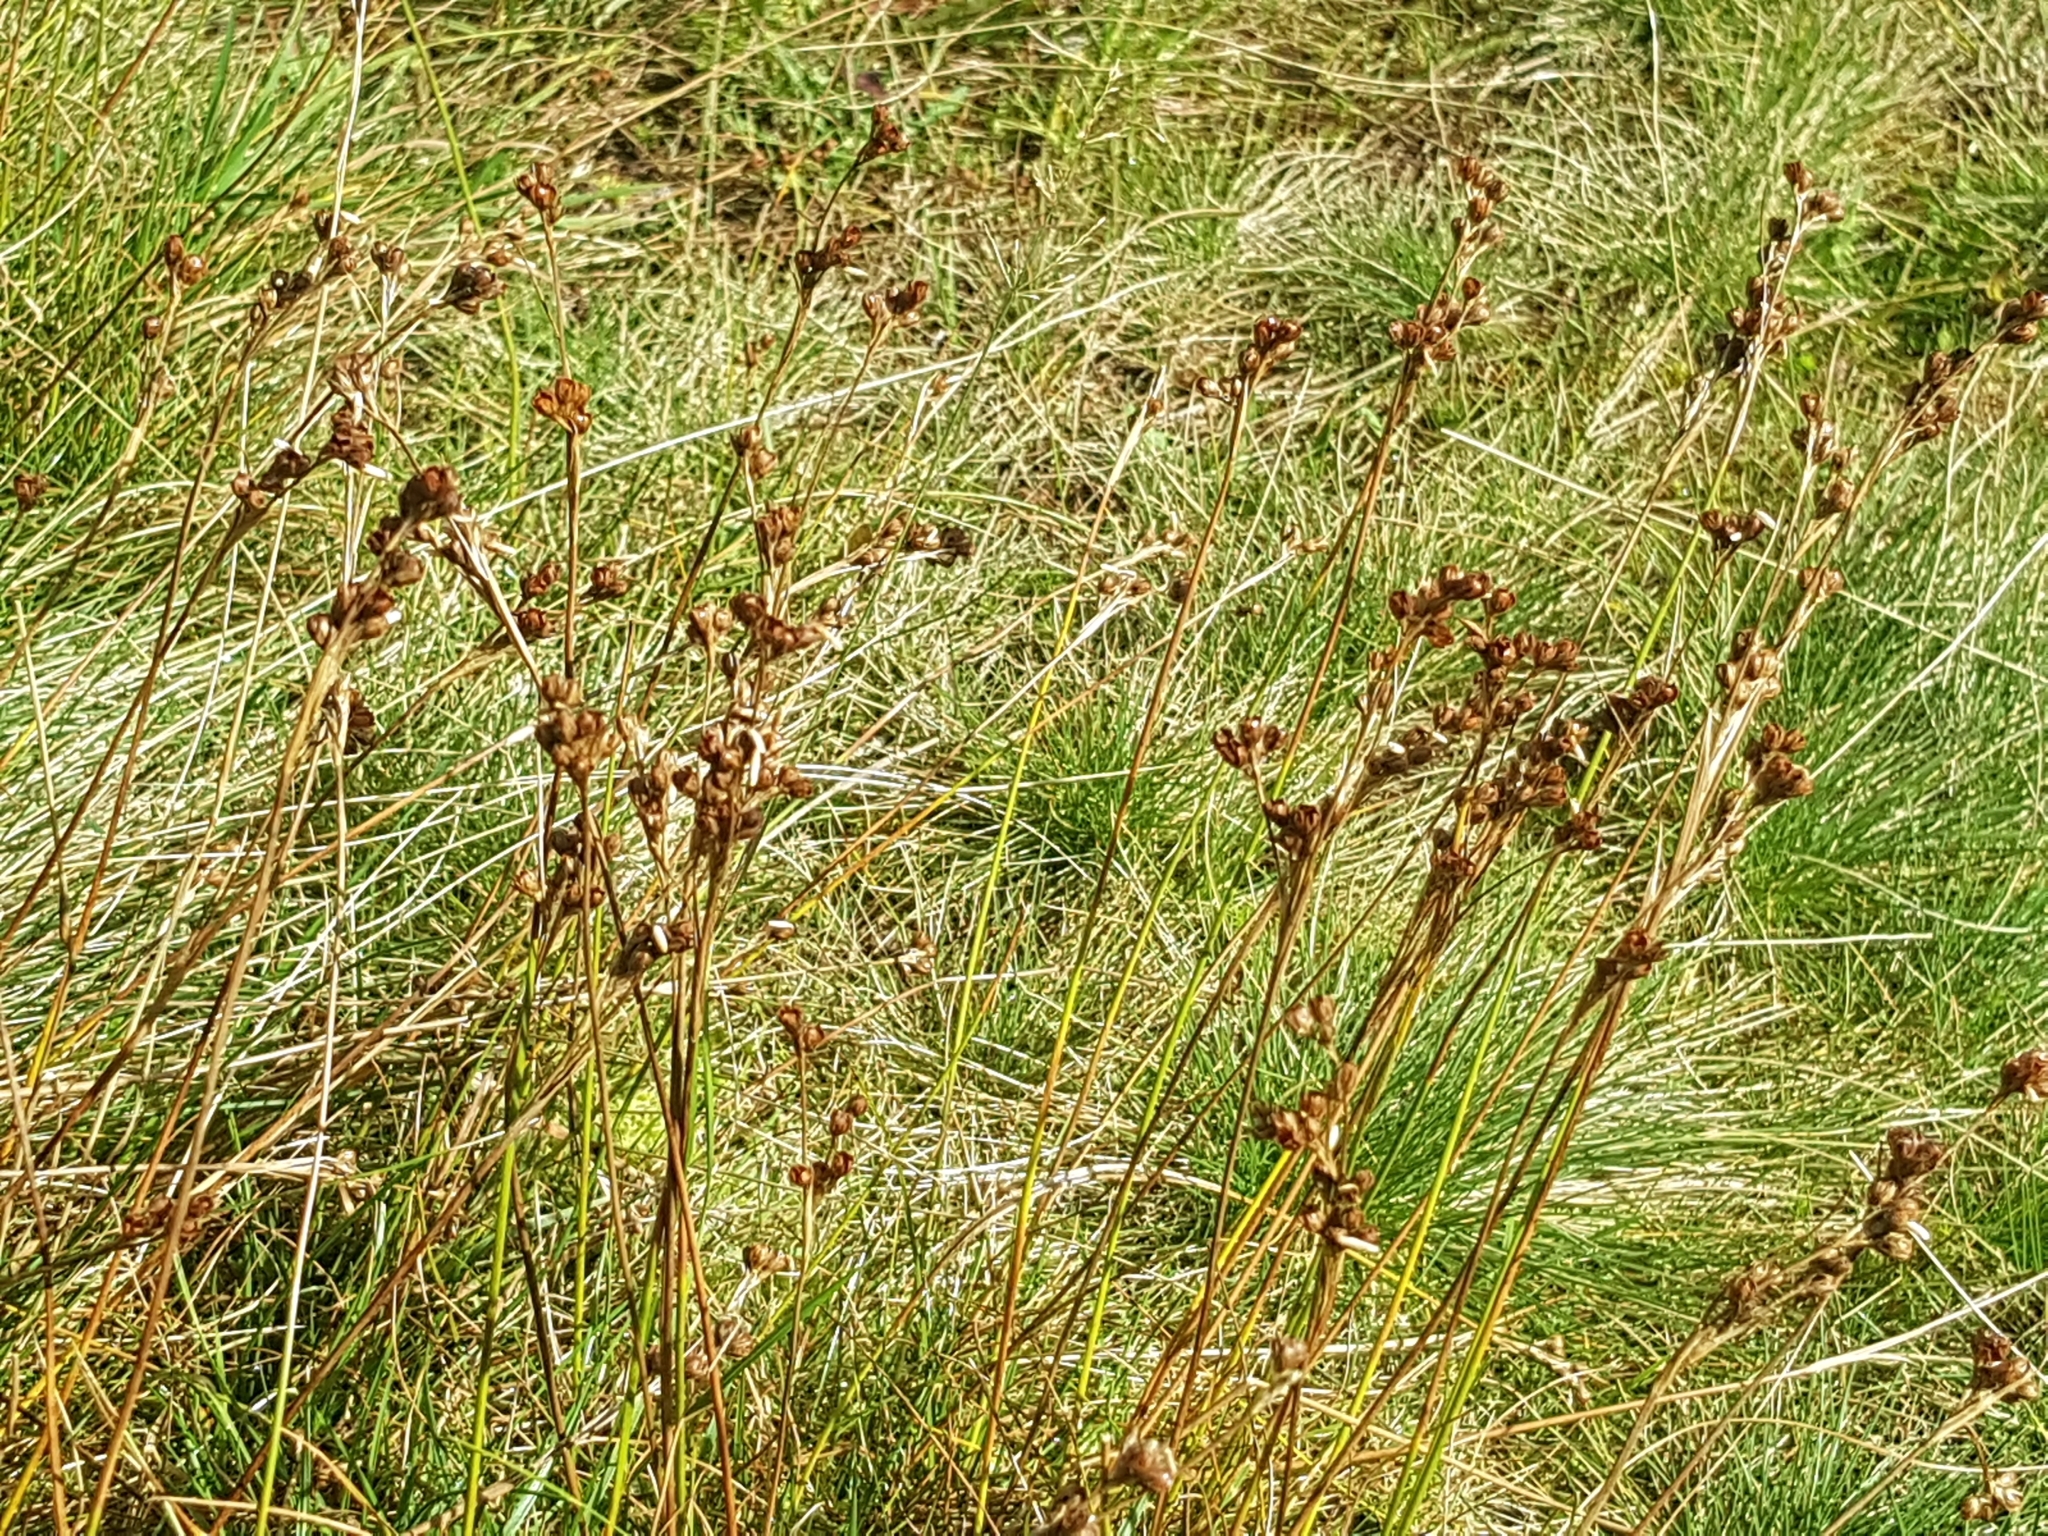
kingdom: Plantae
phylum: Tracheophyta
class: Liliopsida
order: Poales
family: Juncaceae
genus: Juncus
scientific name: Juncus squarrosus
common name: Heath rush
